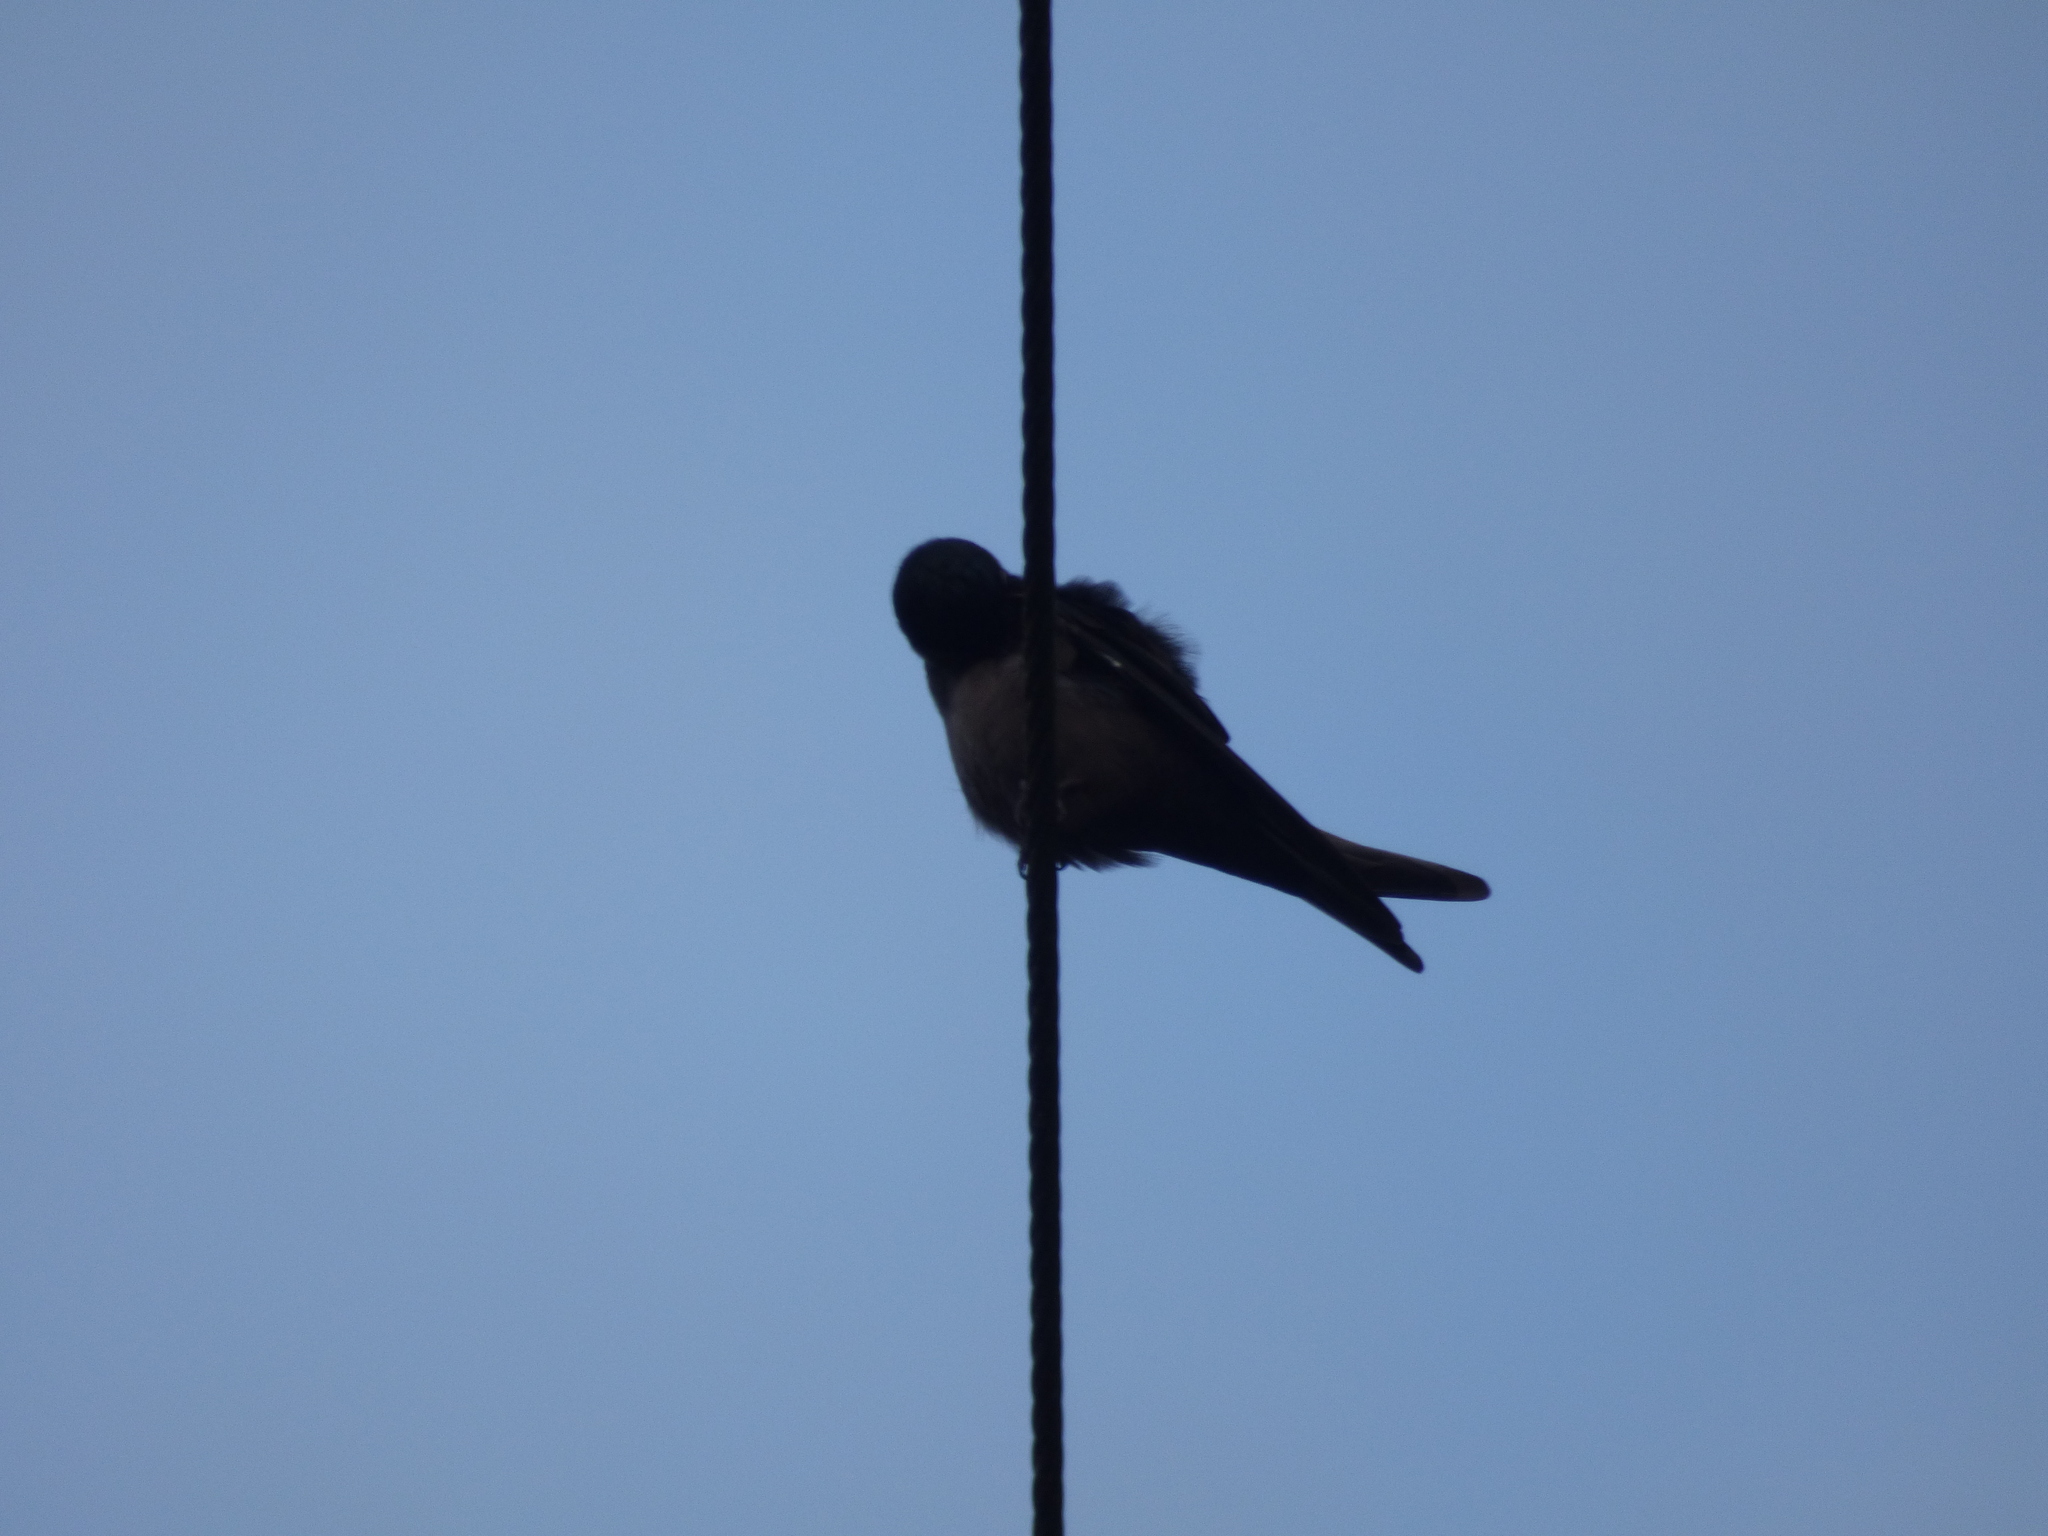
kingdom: Animalia
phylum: Chordata
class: Aves
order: Passeriformes
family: Hirundinidae
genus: Notiochelidon
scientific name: Notiochelidon murina
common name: Brown-bellied swallow
